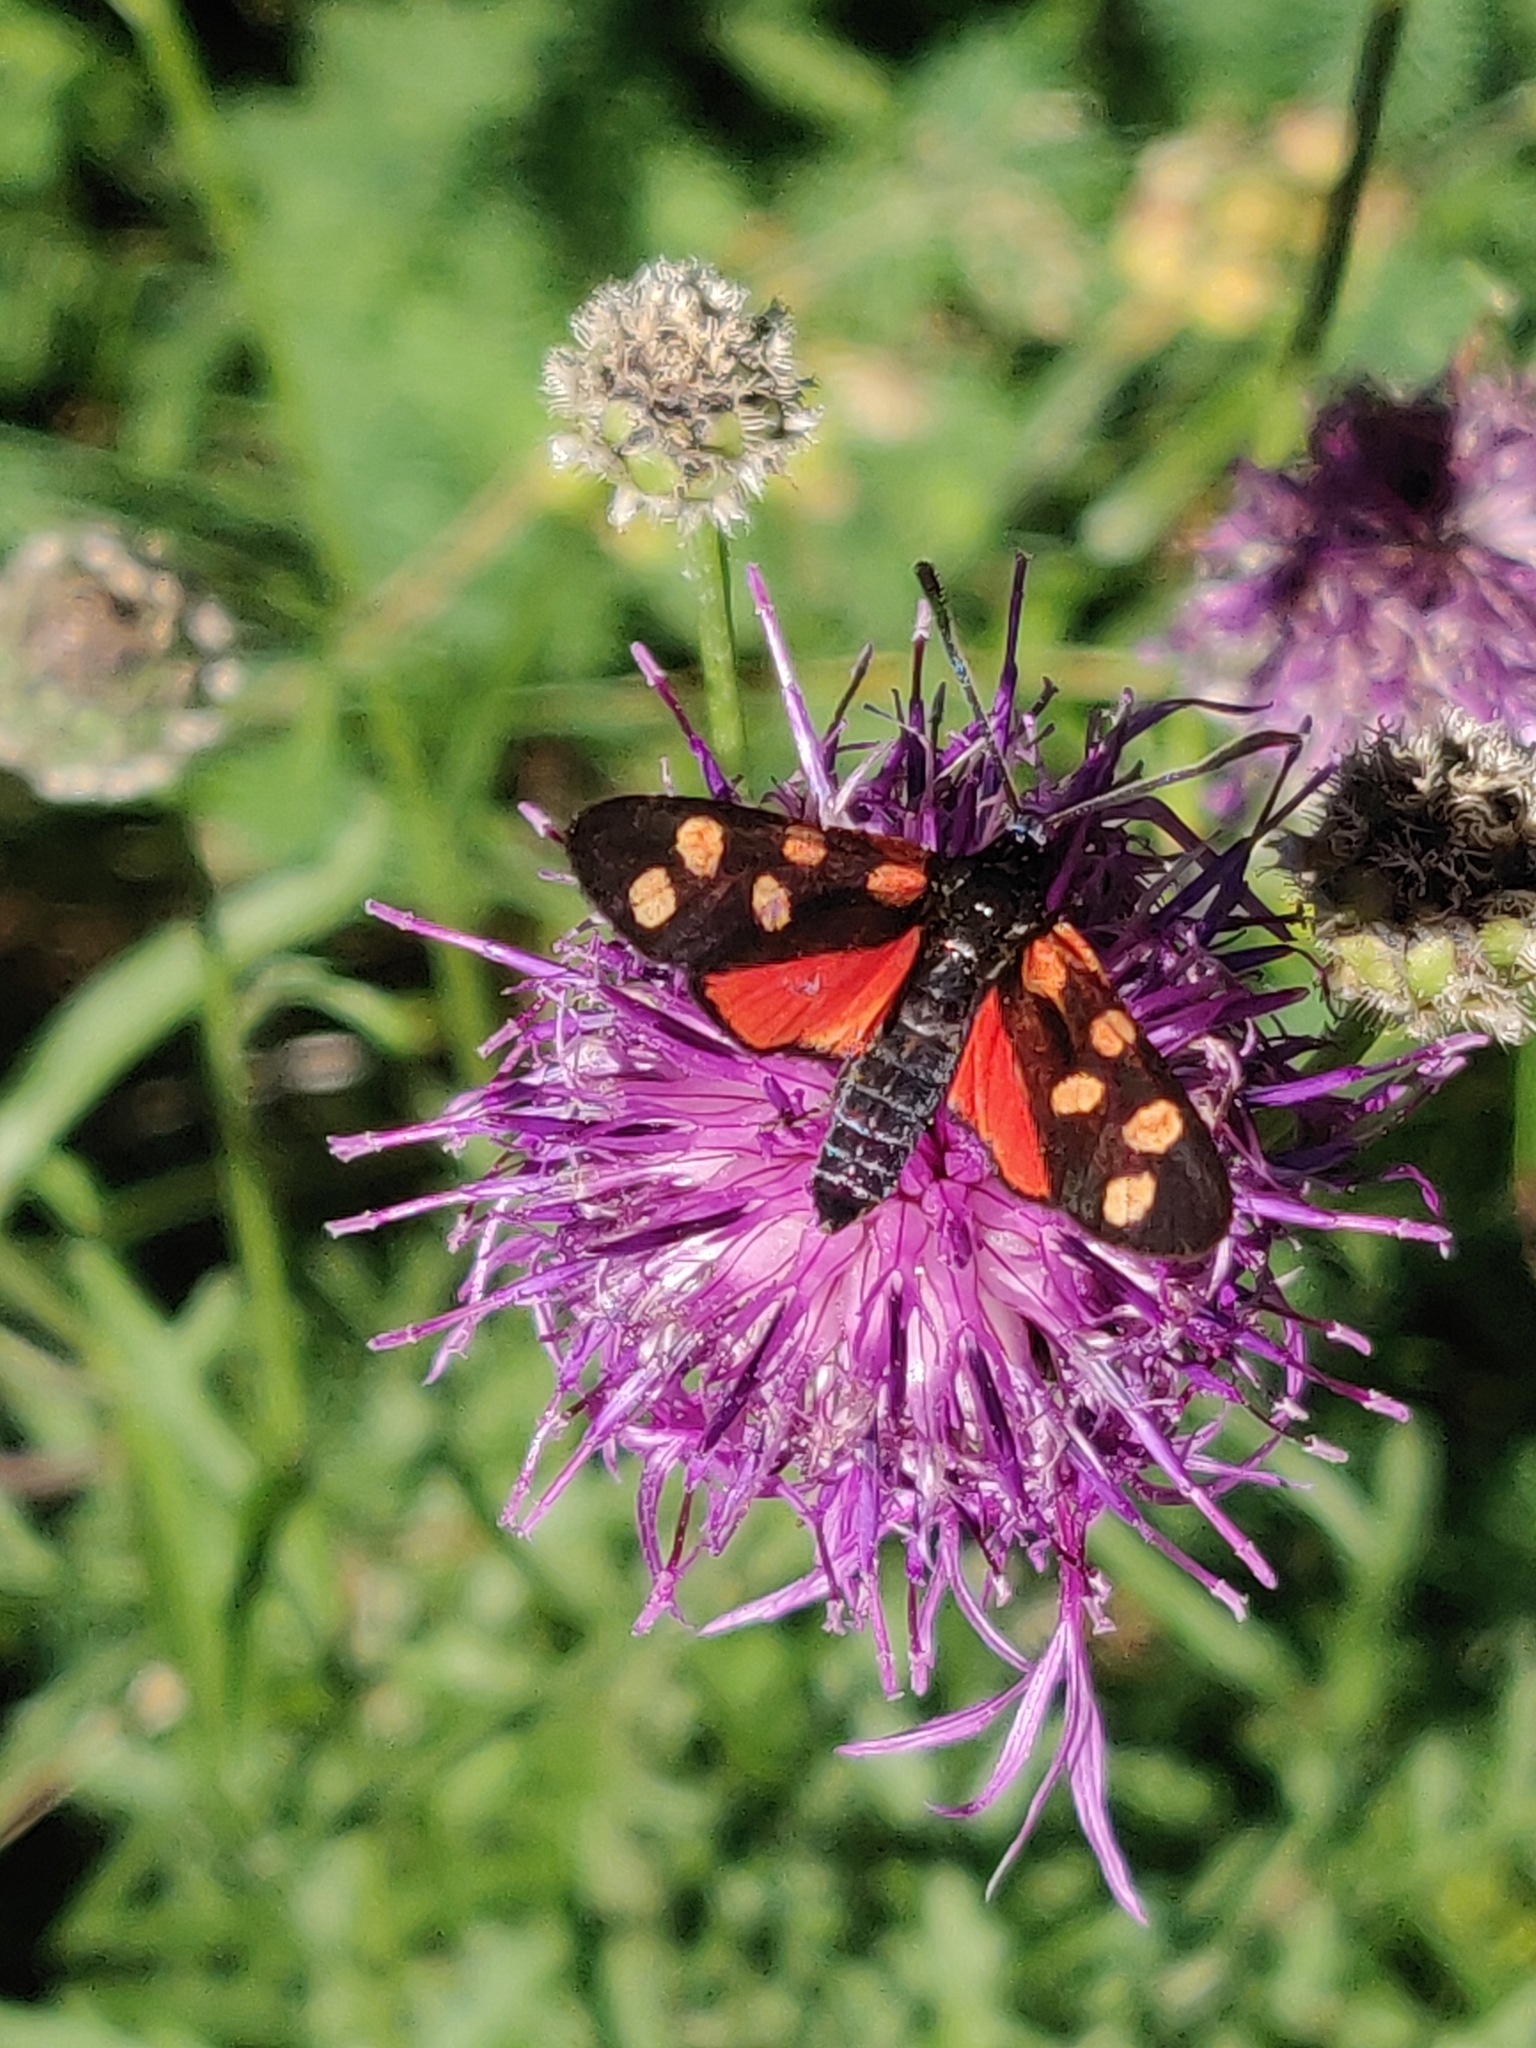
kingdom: Animalia
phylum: Arthropoda
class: Insecta
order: Lepidoptera
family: Zygaenidae
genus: Zygaena
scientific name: Zygaena transalpina
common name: Southern six spot burnet
